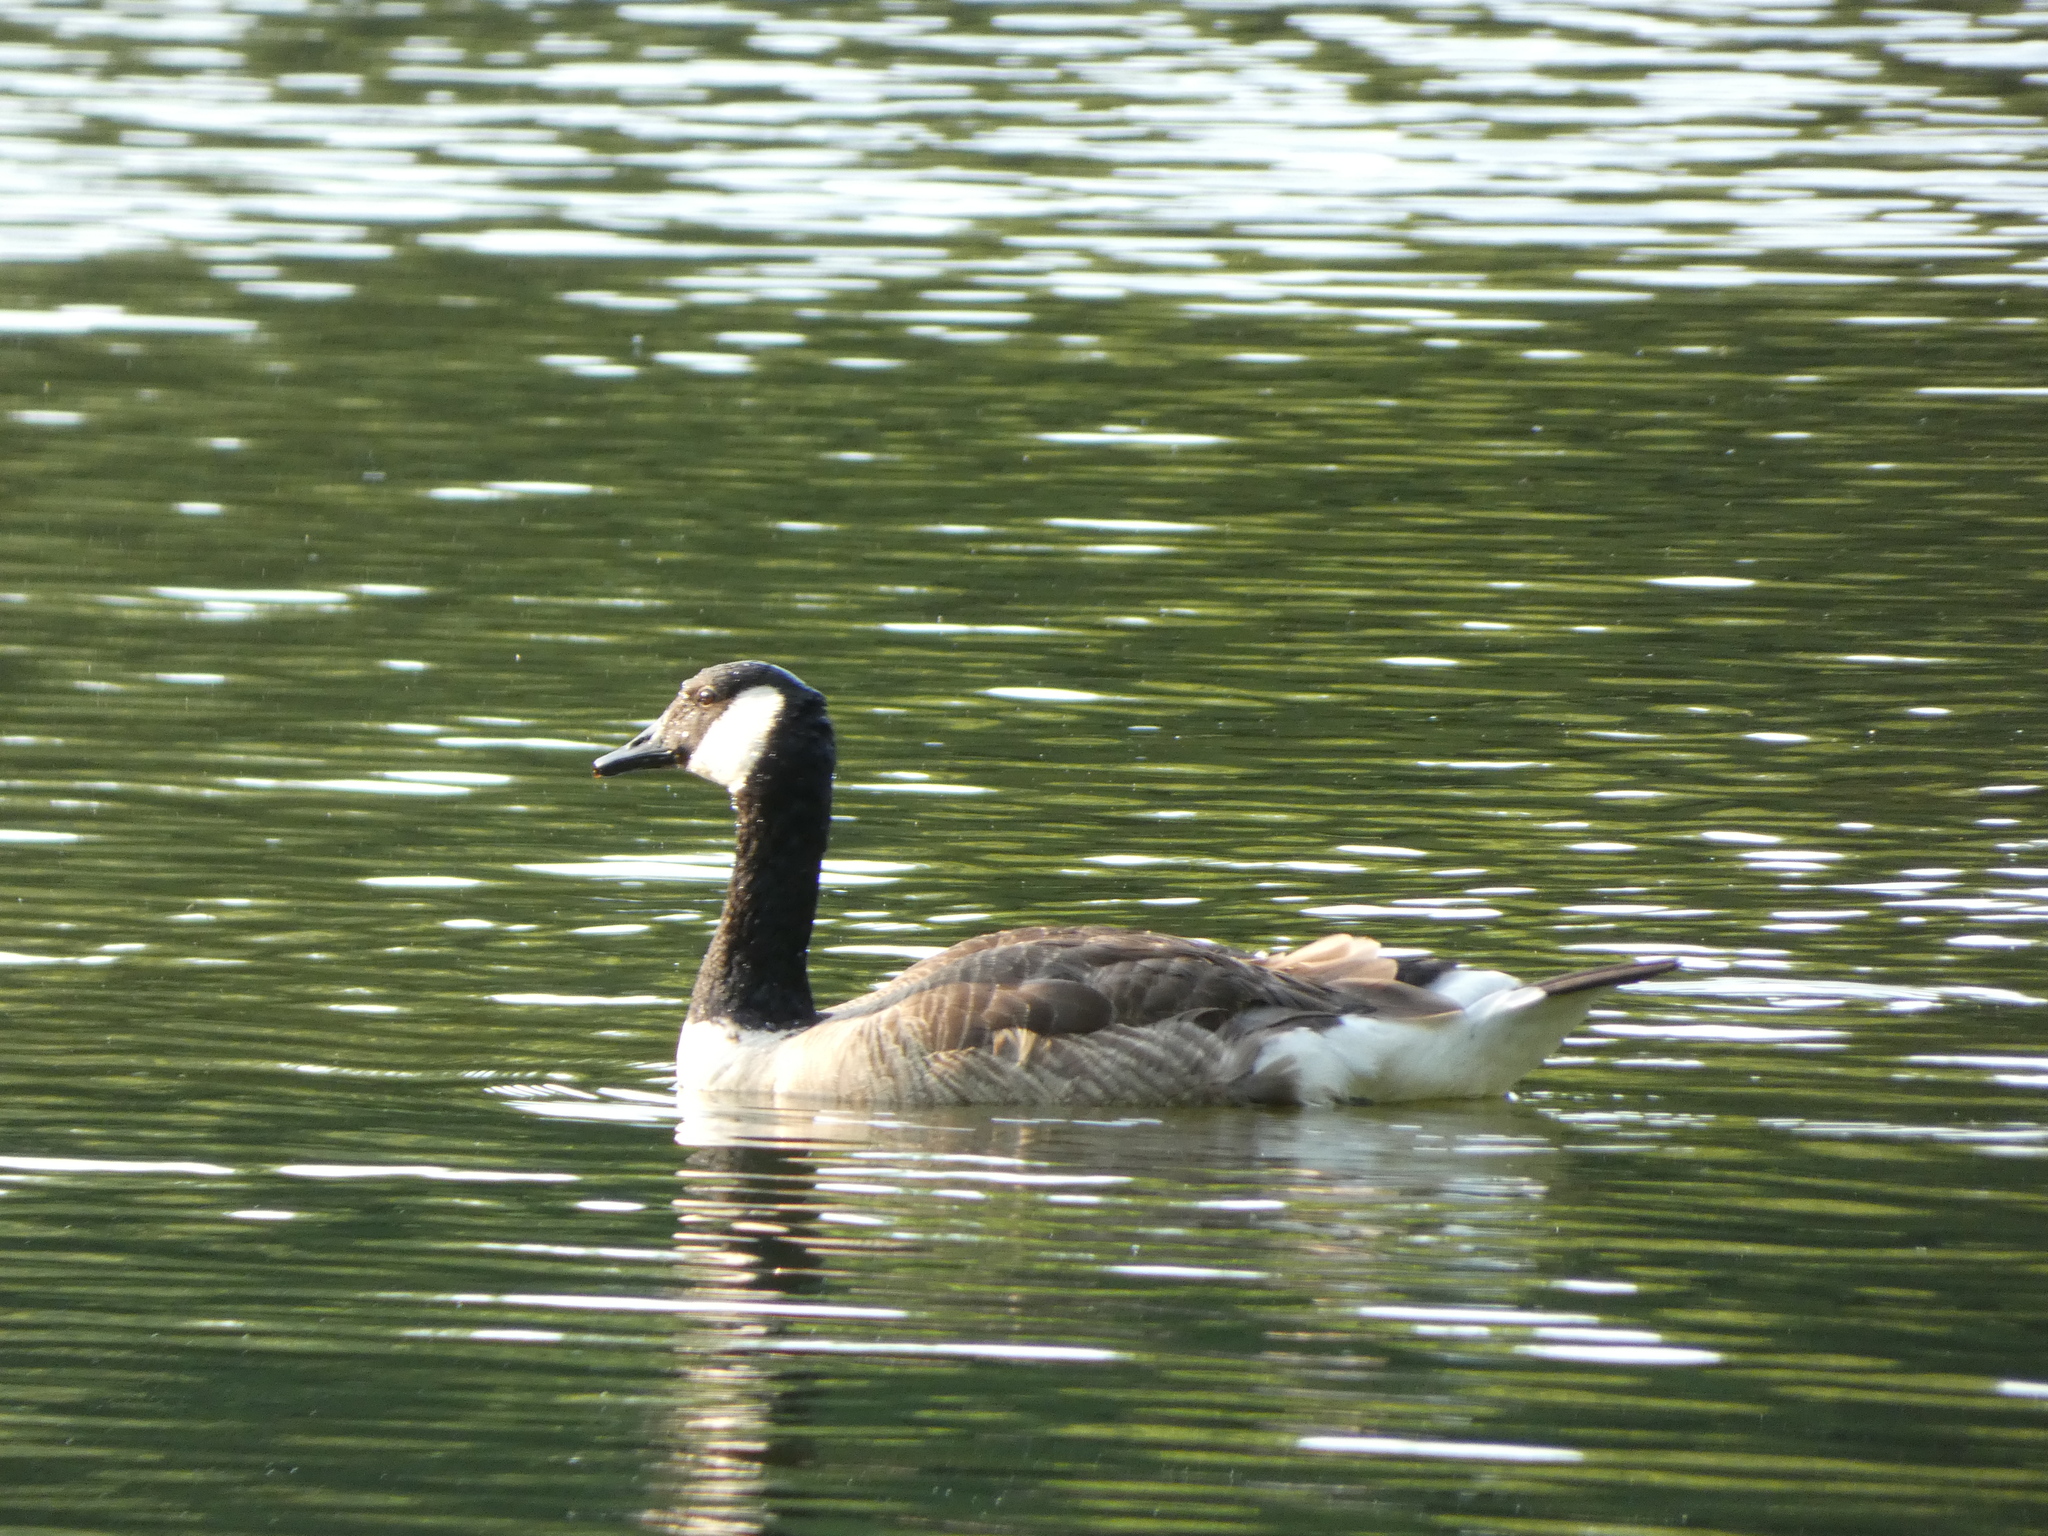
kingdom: Animalia
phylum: Chordata
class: Aves
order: Anseriformes
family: Anatidae
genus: Branta
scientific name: Branta canadensis
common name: Canada goose
